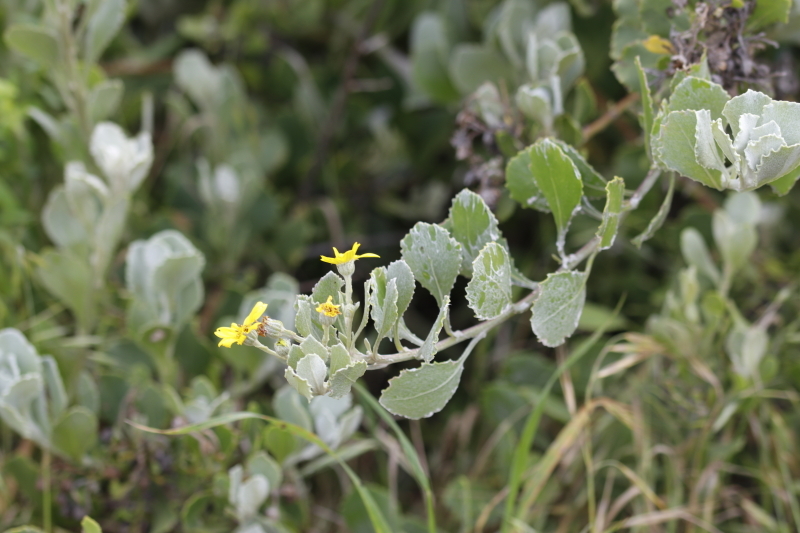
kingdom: Plantae
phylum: Tracheophyta
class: Magnoliopsida
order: Asterales
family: Asteraceae
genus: Osteospermum
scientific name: Osteospermum moniliferum
